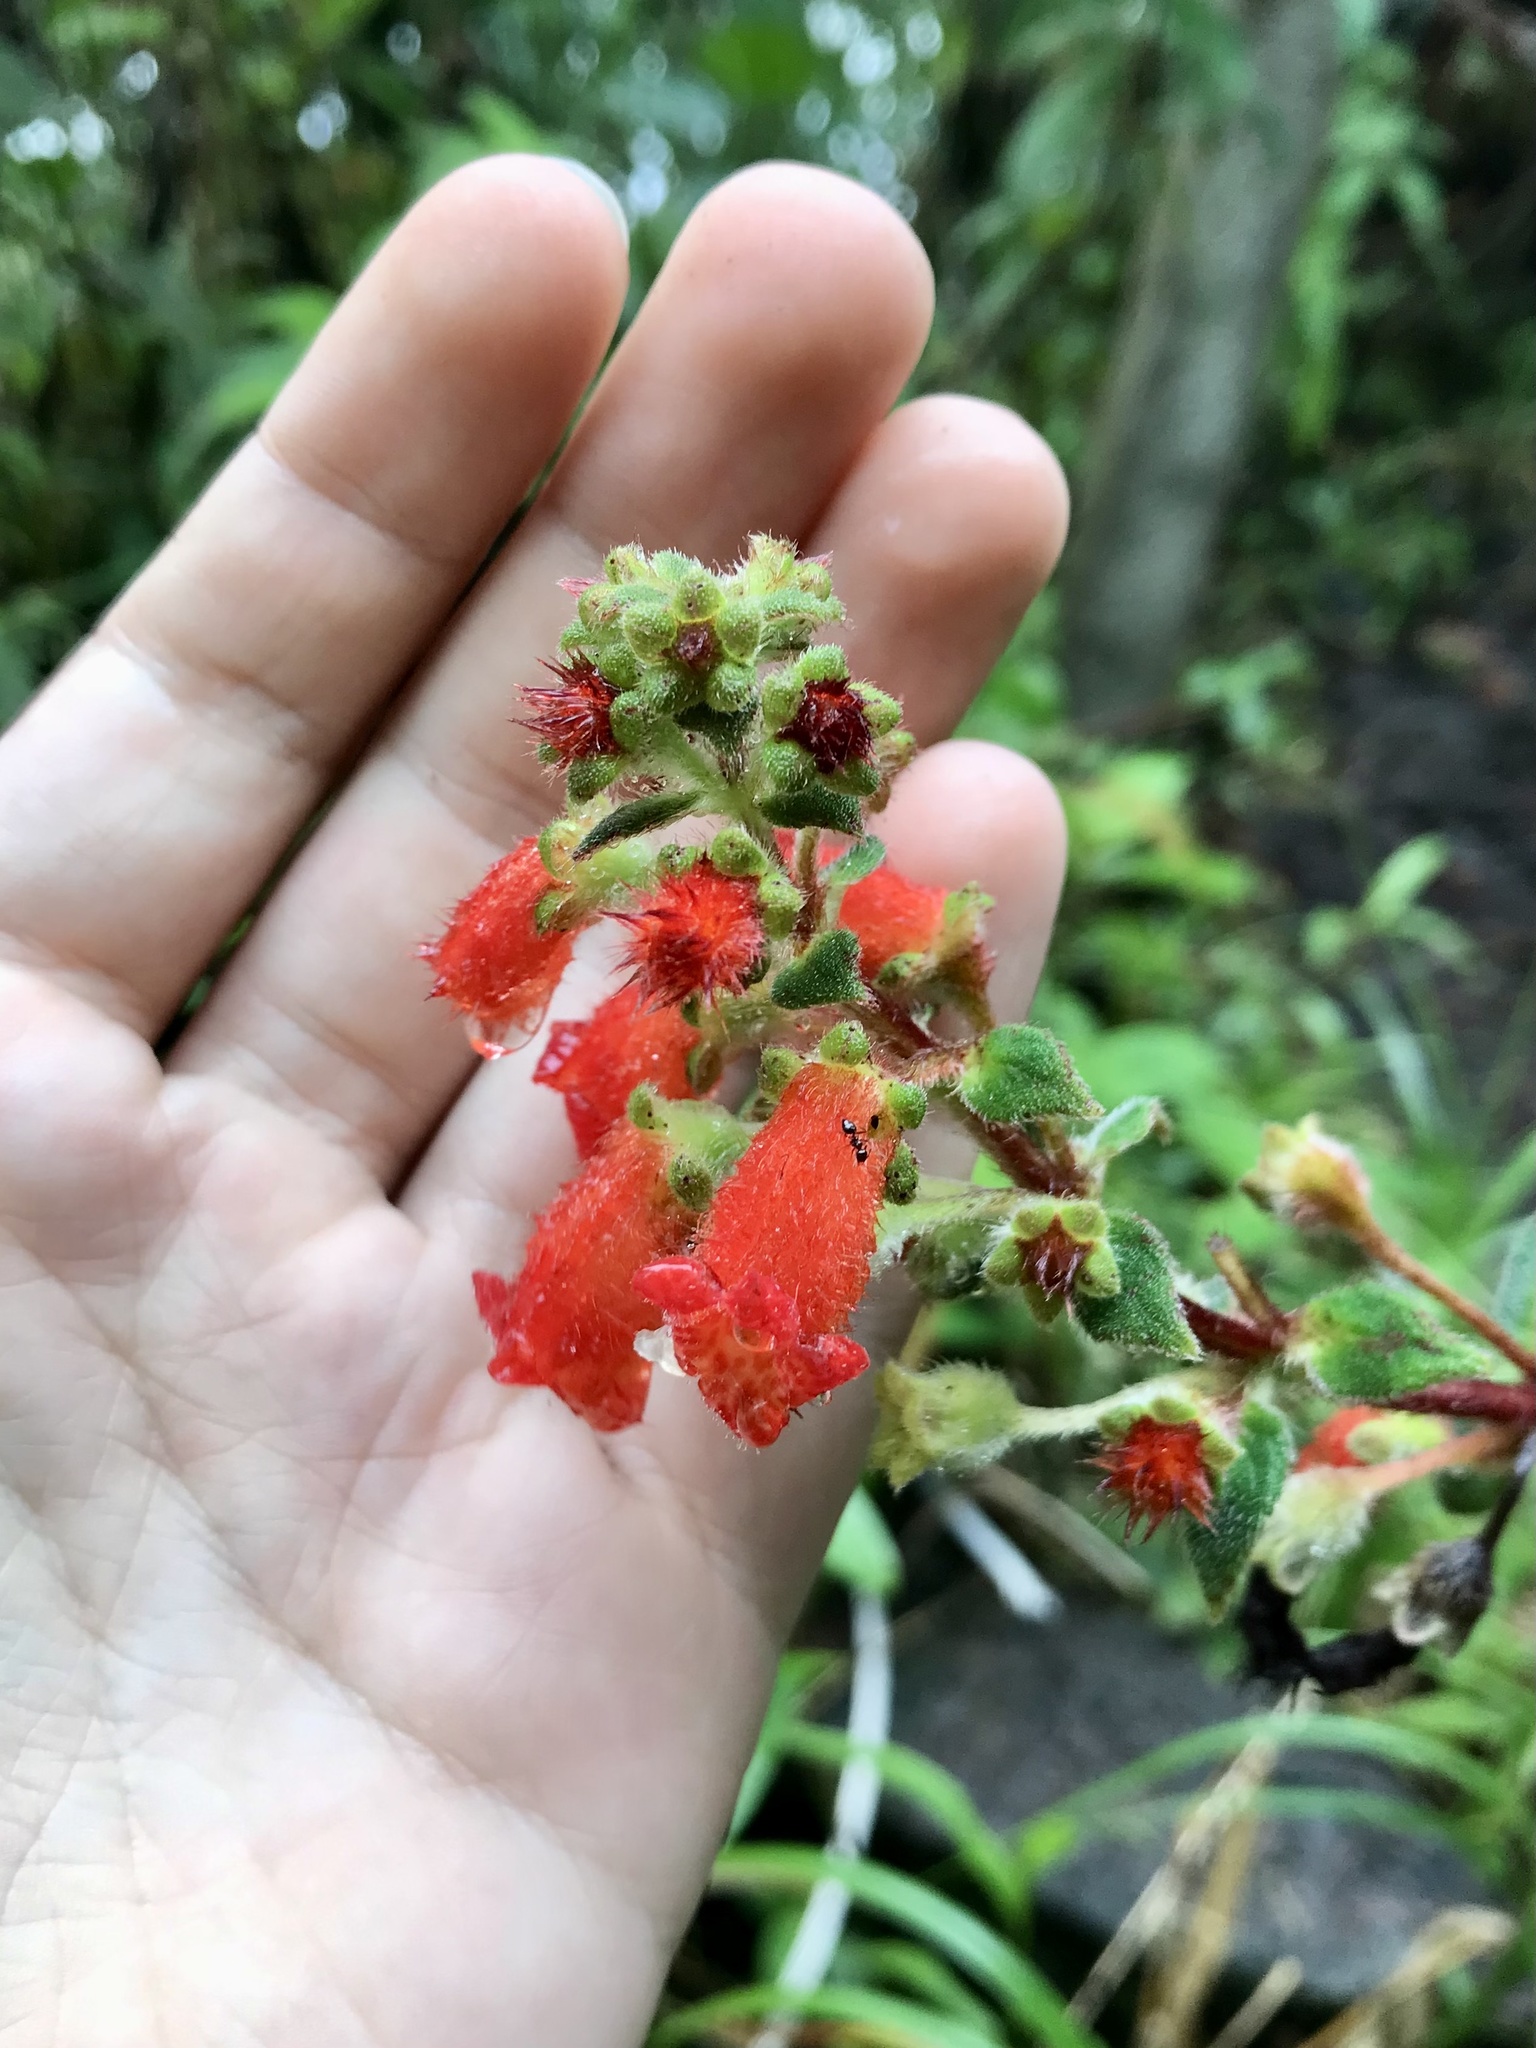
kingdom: Plantae
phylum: Tracheophyta
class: Magnoliopsida
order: Lamiales
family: Gesneriaceae
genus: Kohleria
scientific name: Kohleria spicata
